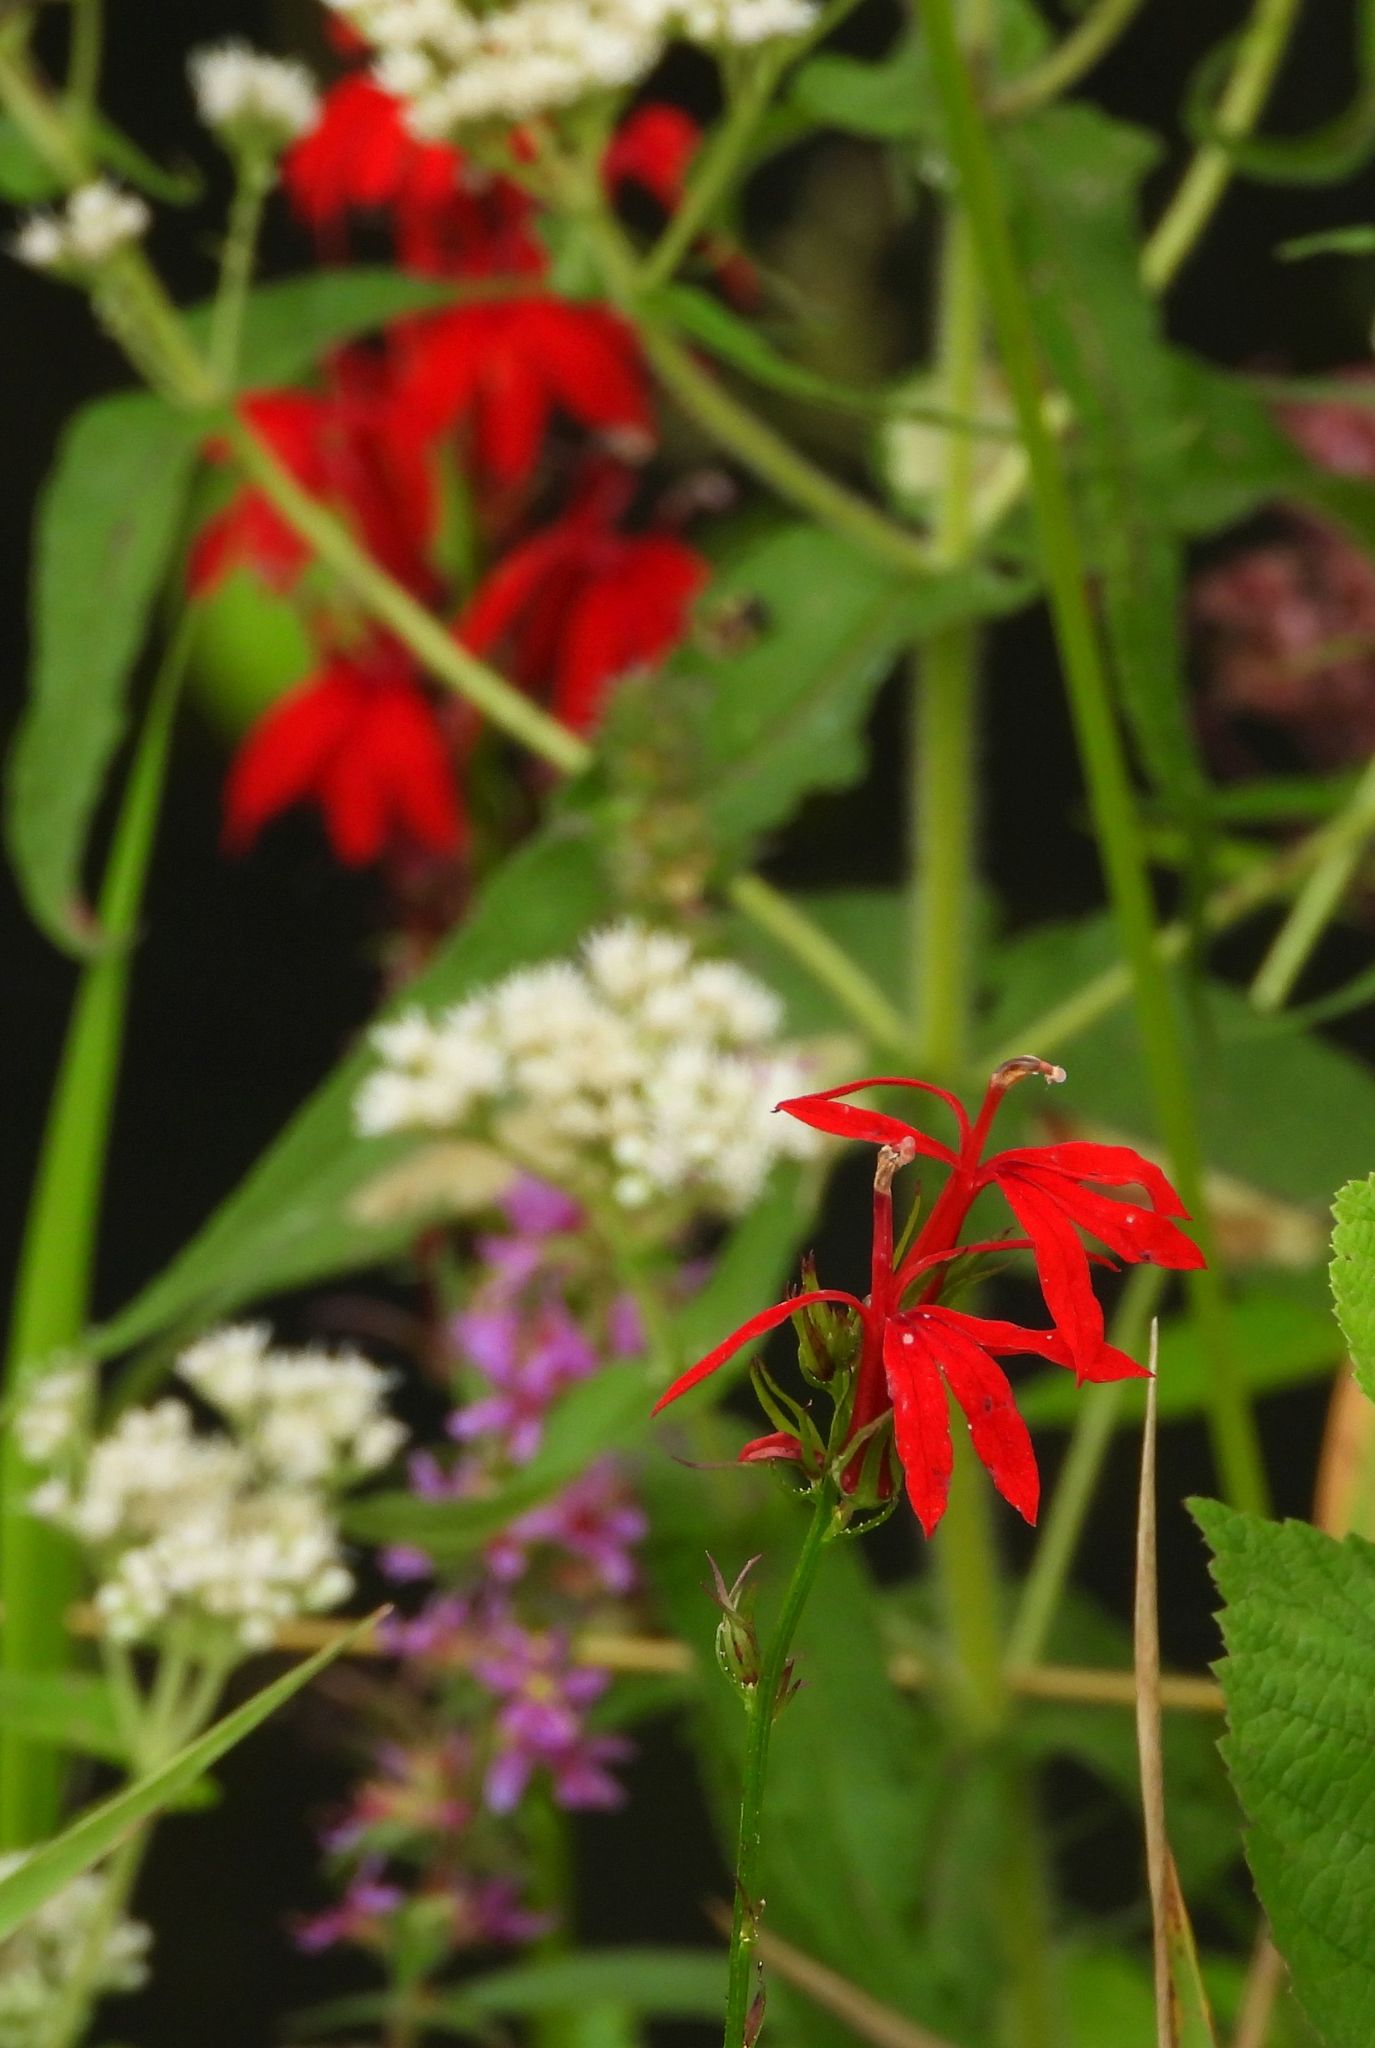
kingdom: Plantae
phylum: Tracheophyta
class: Magnoliopsida
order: Asterales
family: Campanulaceae
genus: Lobelia
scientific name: Lobelia cardinalis
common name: Cardinal flower
